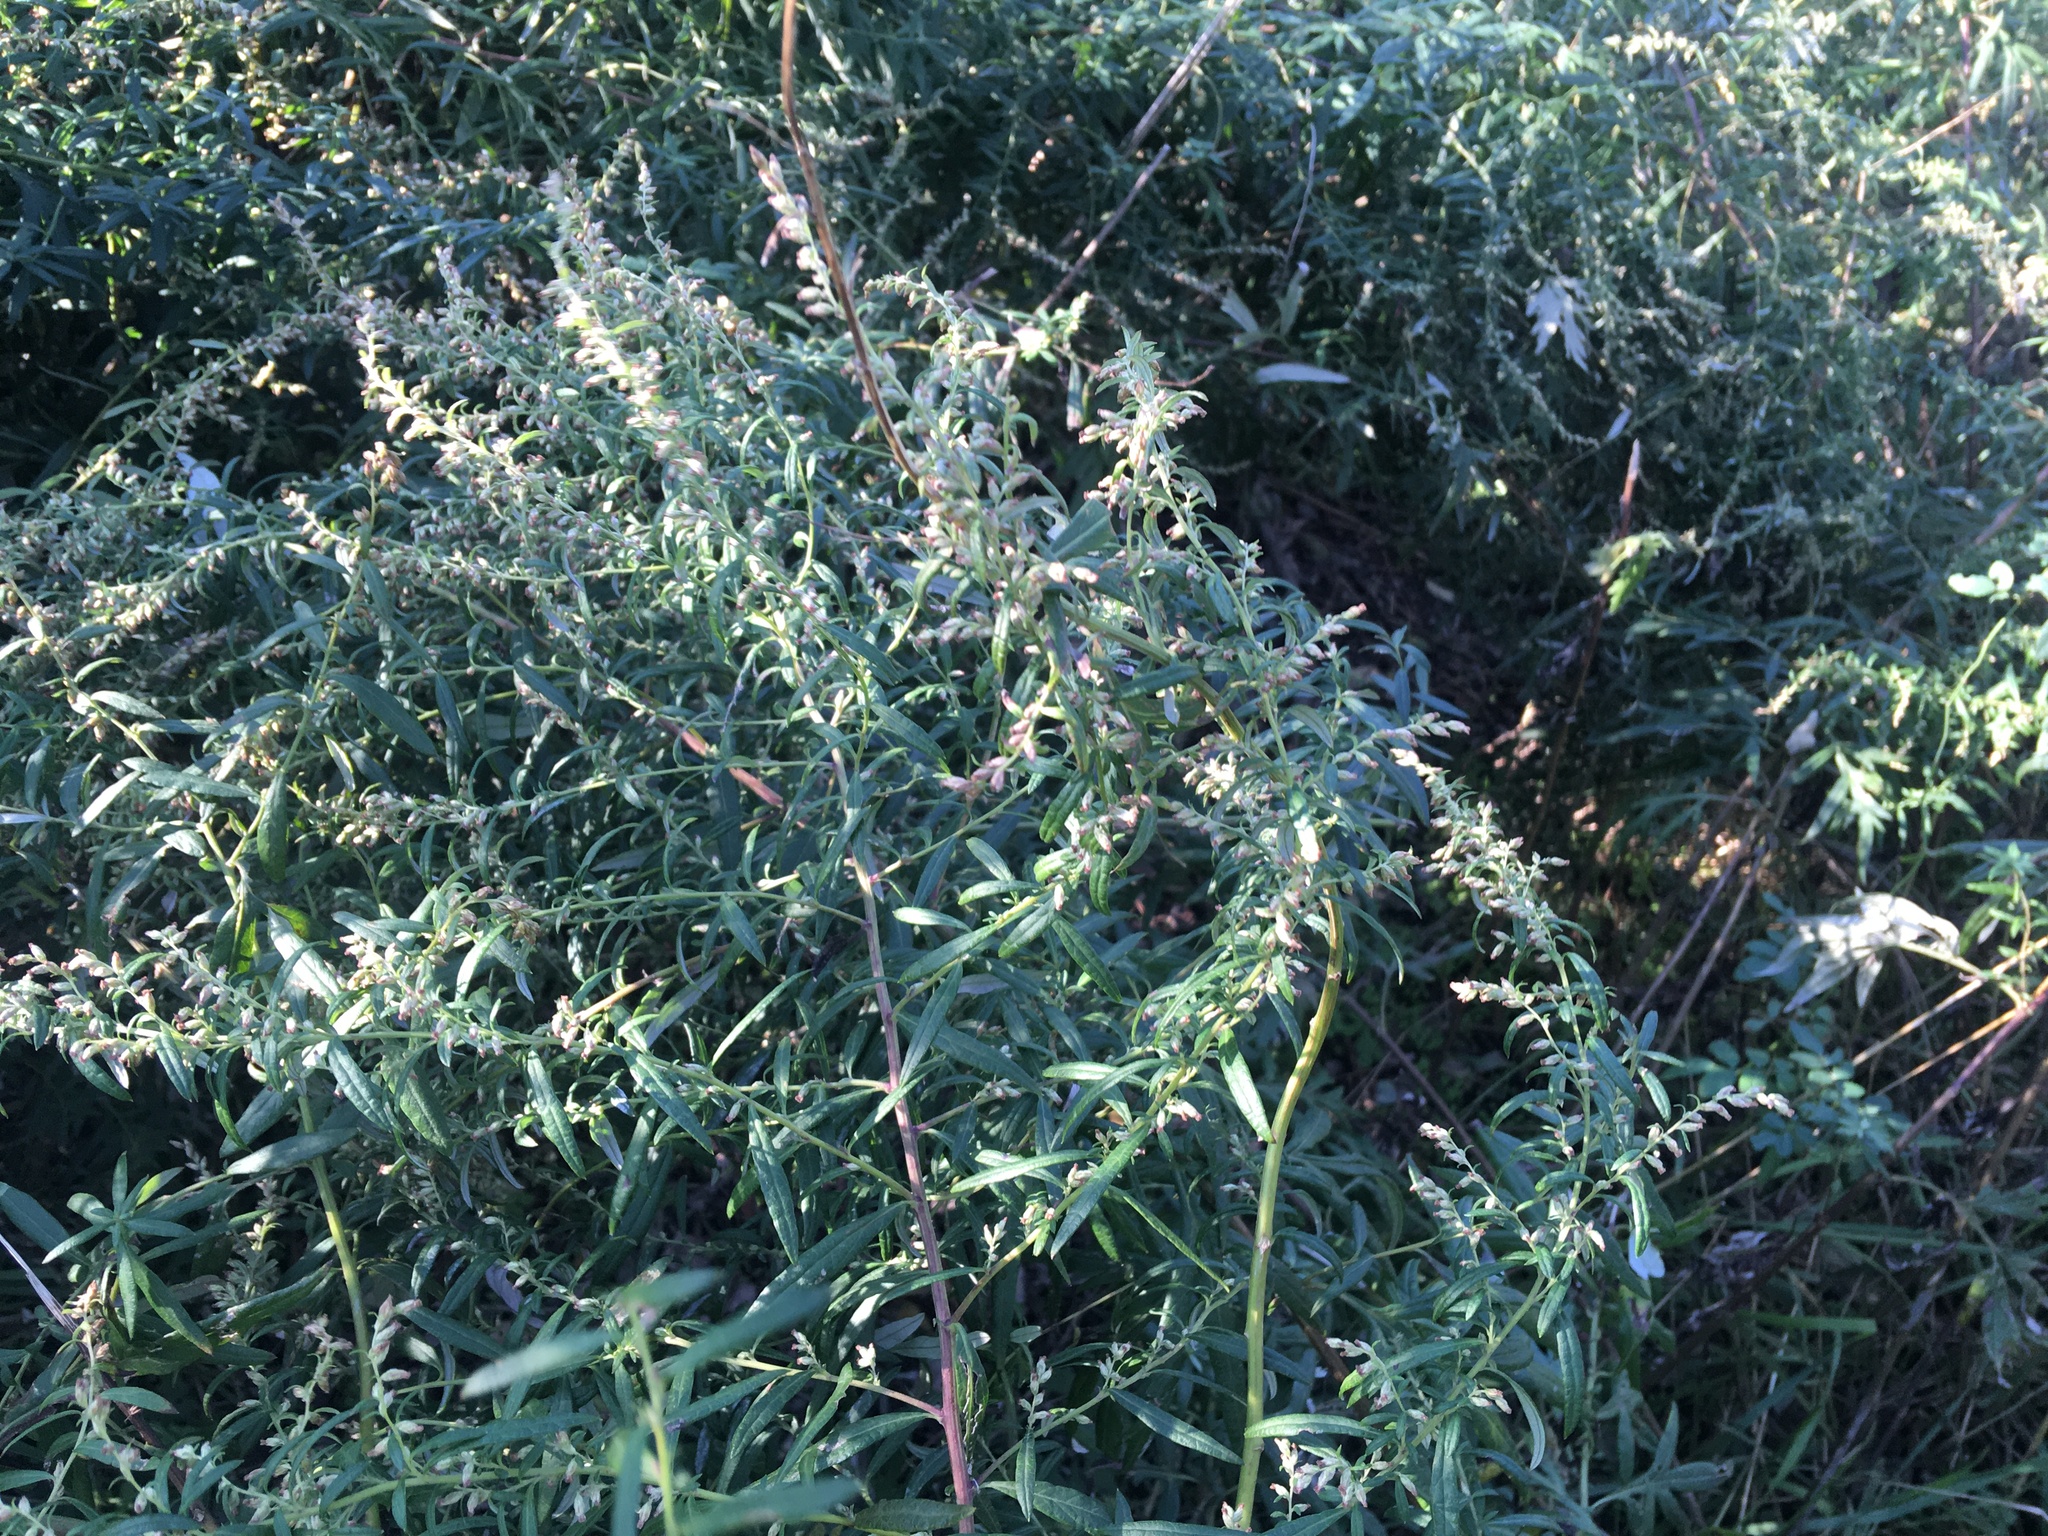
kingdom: Plantae
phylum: Tracheophyta
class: Magnoliopsida
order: Asterales
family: Asteraceae
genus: Artemisia
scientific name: Artemisia vulgaris
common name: Mugwort
